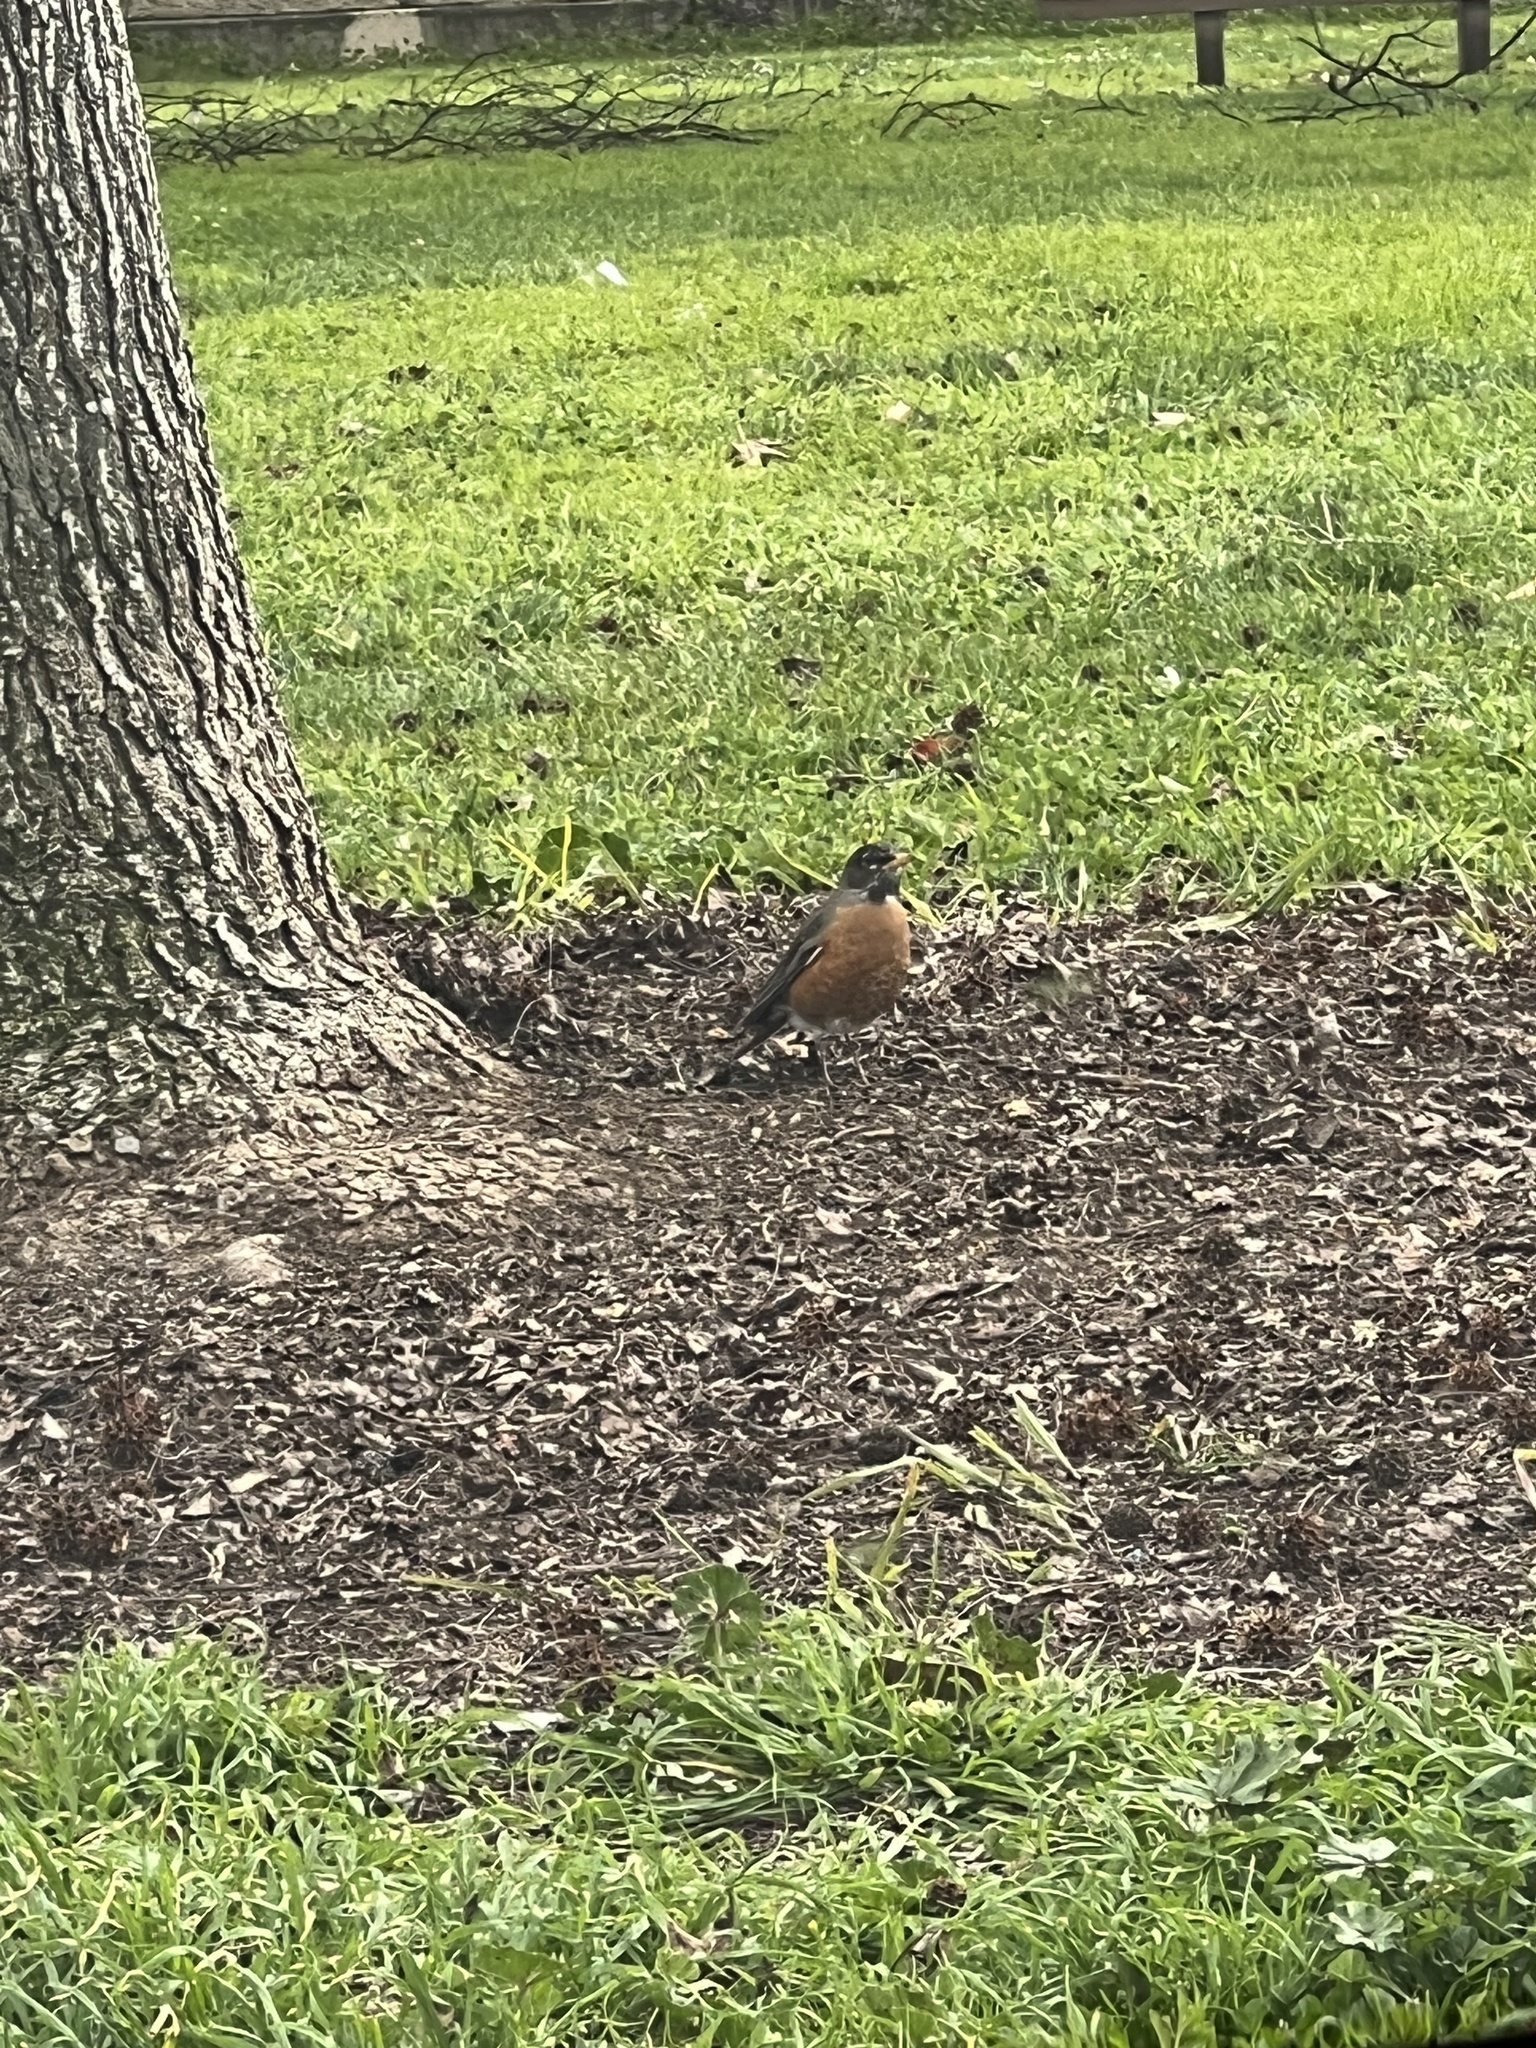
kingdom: Animalia
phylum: Chordata
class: Aves
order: Passeriformes
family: Turdidae
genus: Turdus
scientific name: Turdus migratorius
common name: American robin
